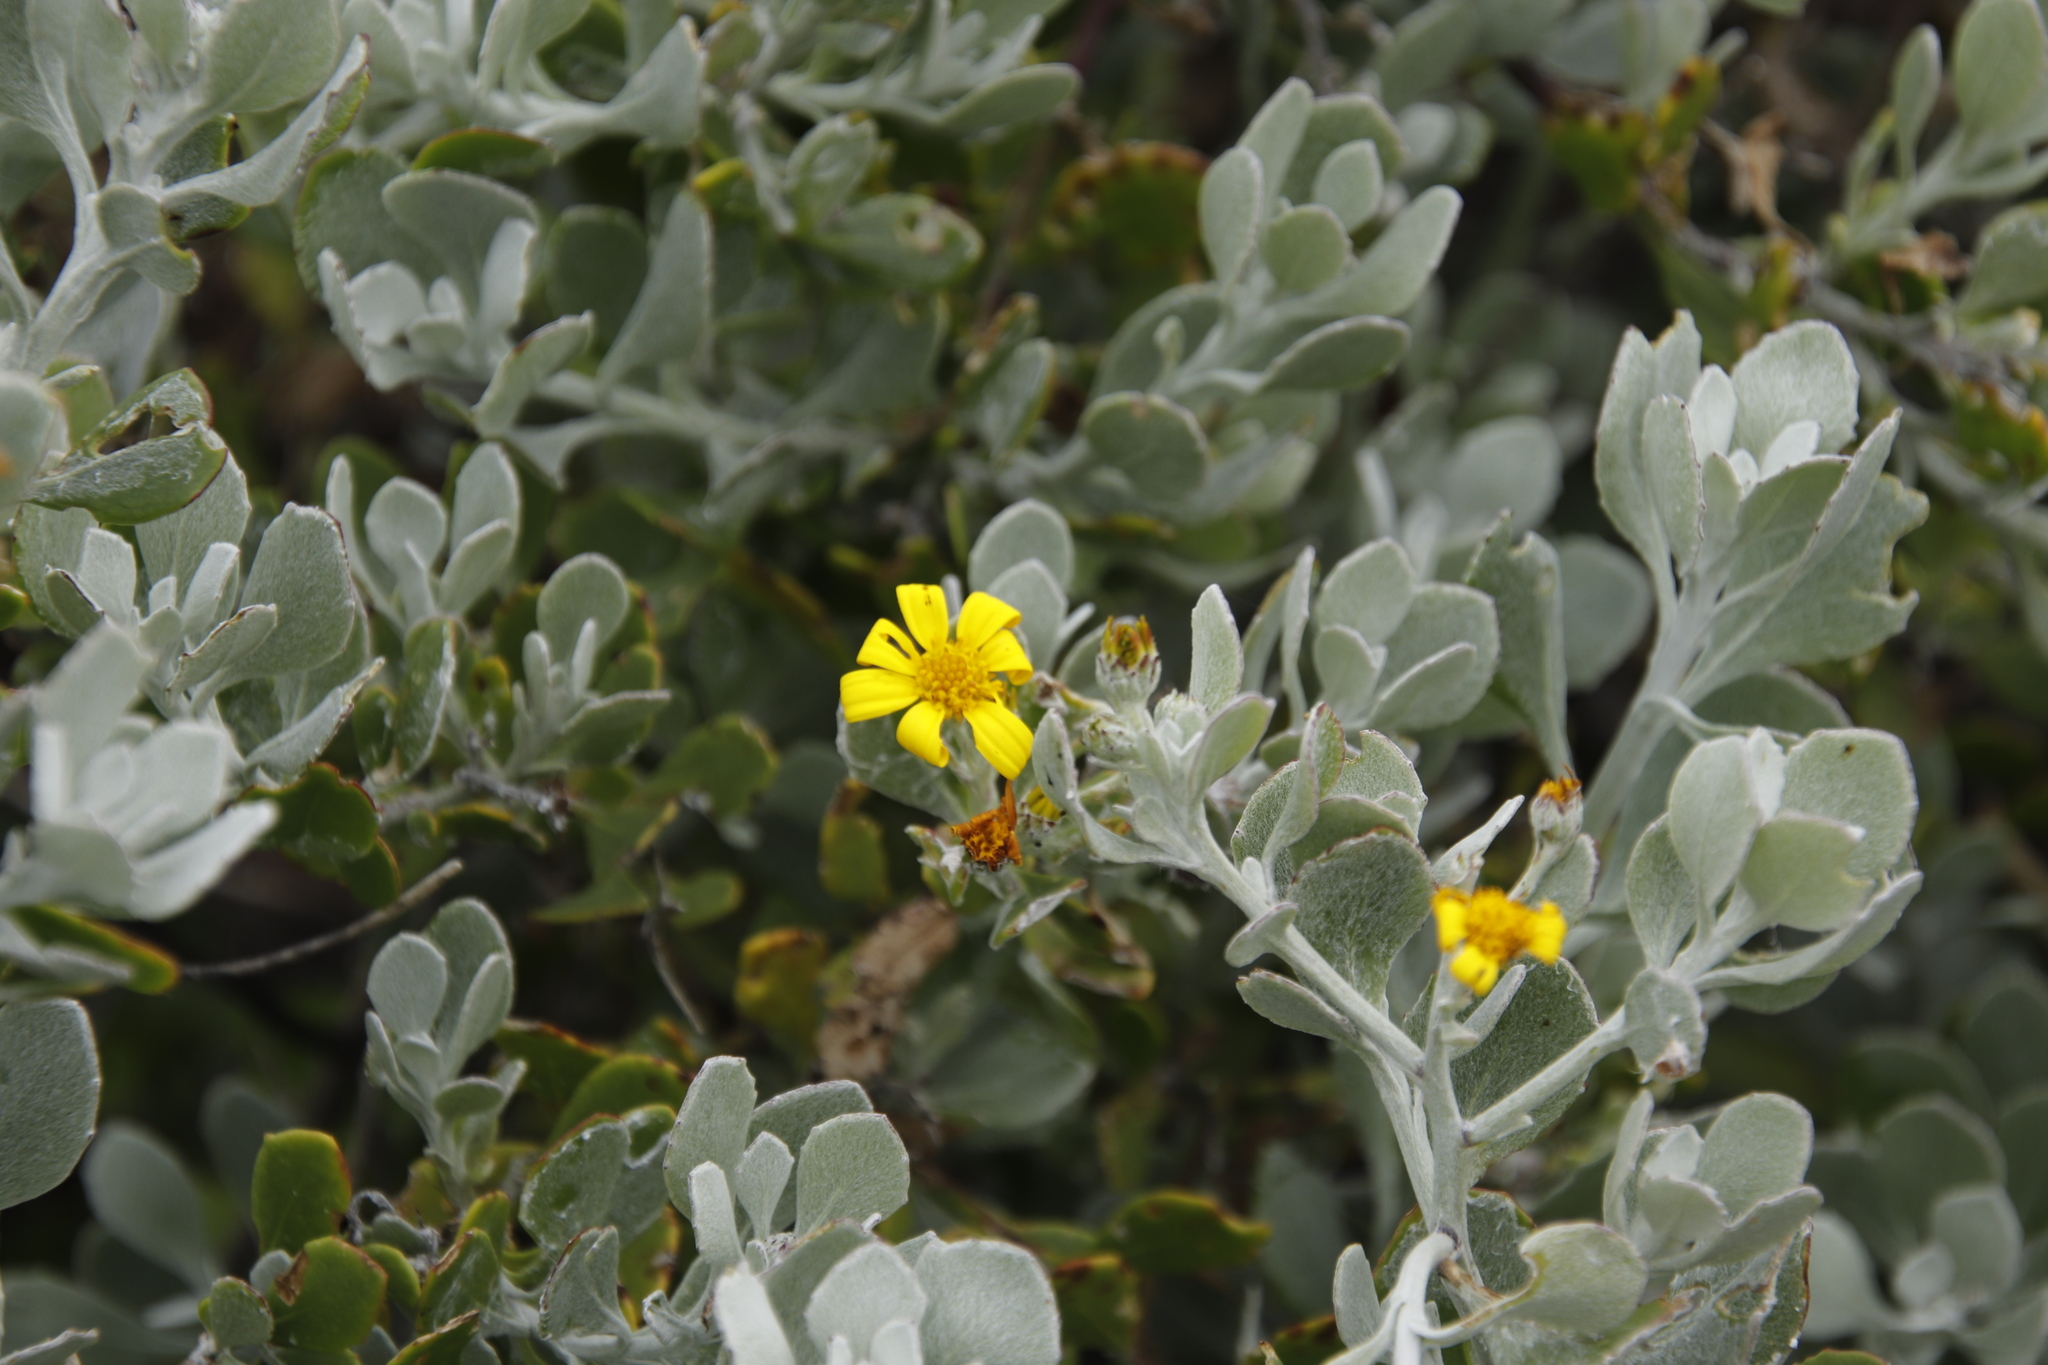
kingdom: Plantae
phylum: Tracheophyta
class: Magnoliopsida
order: Asterales
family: Asteraceae
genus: Osteospermum
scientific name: Osteospermum incanum
